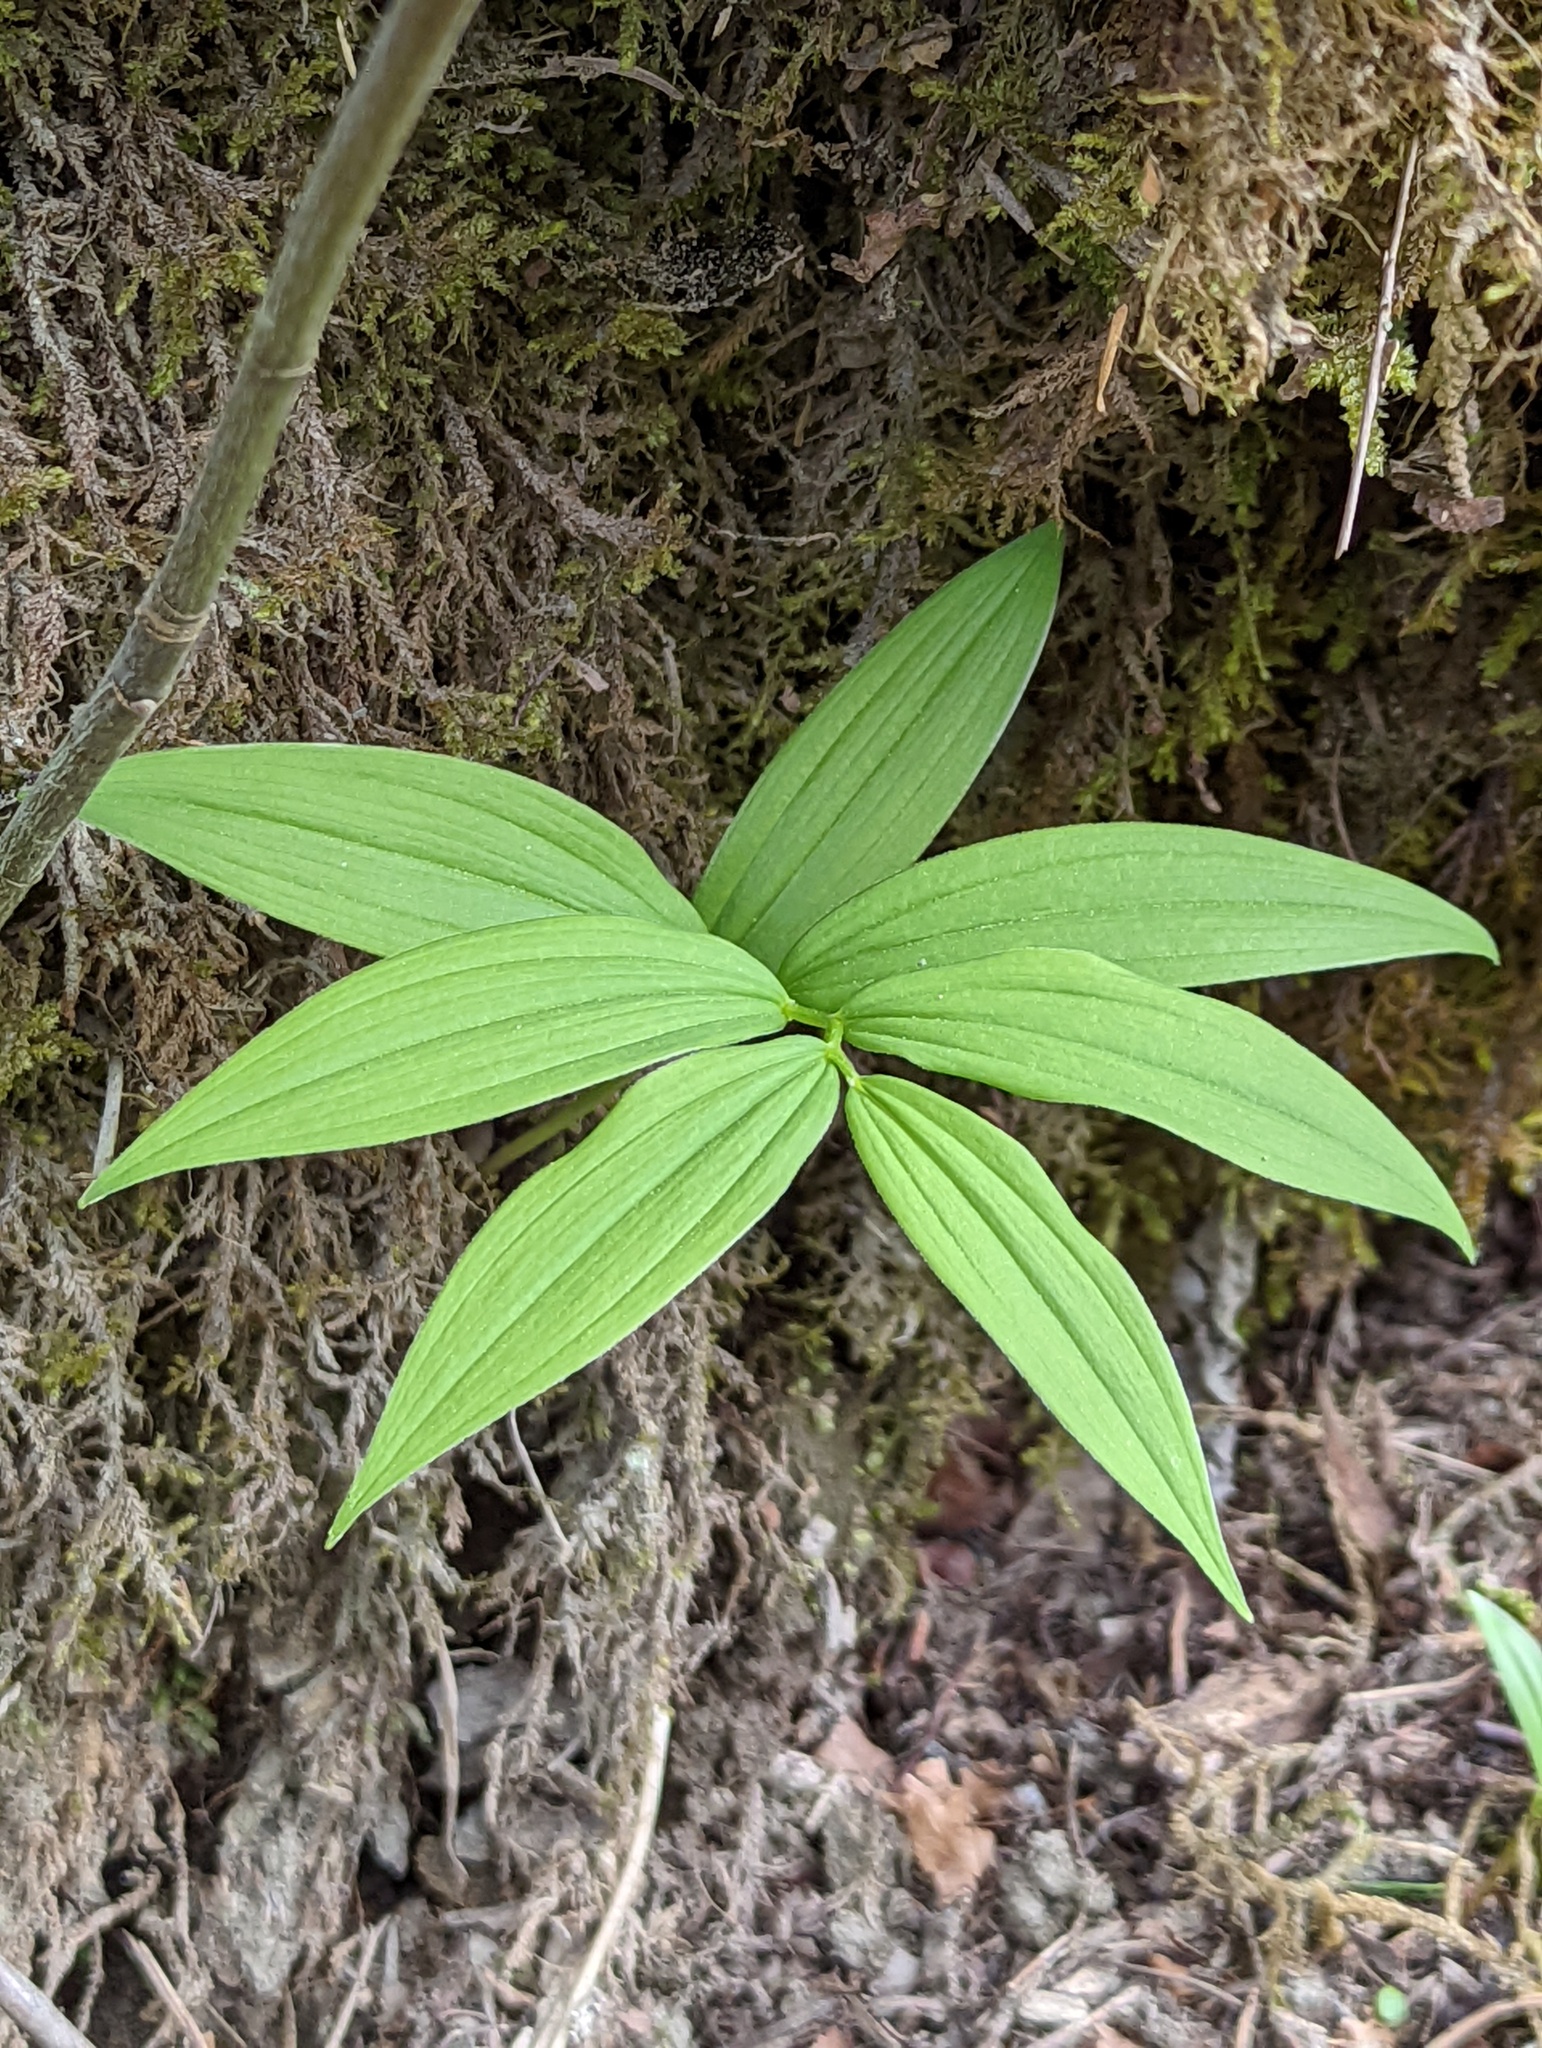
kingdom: Plantae
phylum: Tracheophyta
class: Liliopsida
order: Asparagales
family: Asparagaceae
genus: Maianthemum
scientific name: Maianthemum stellatum
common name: Little false solomon's seal
